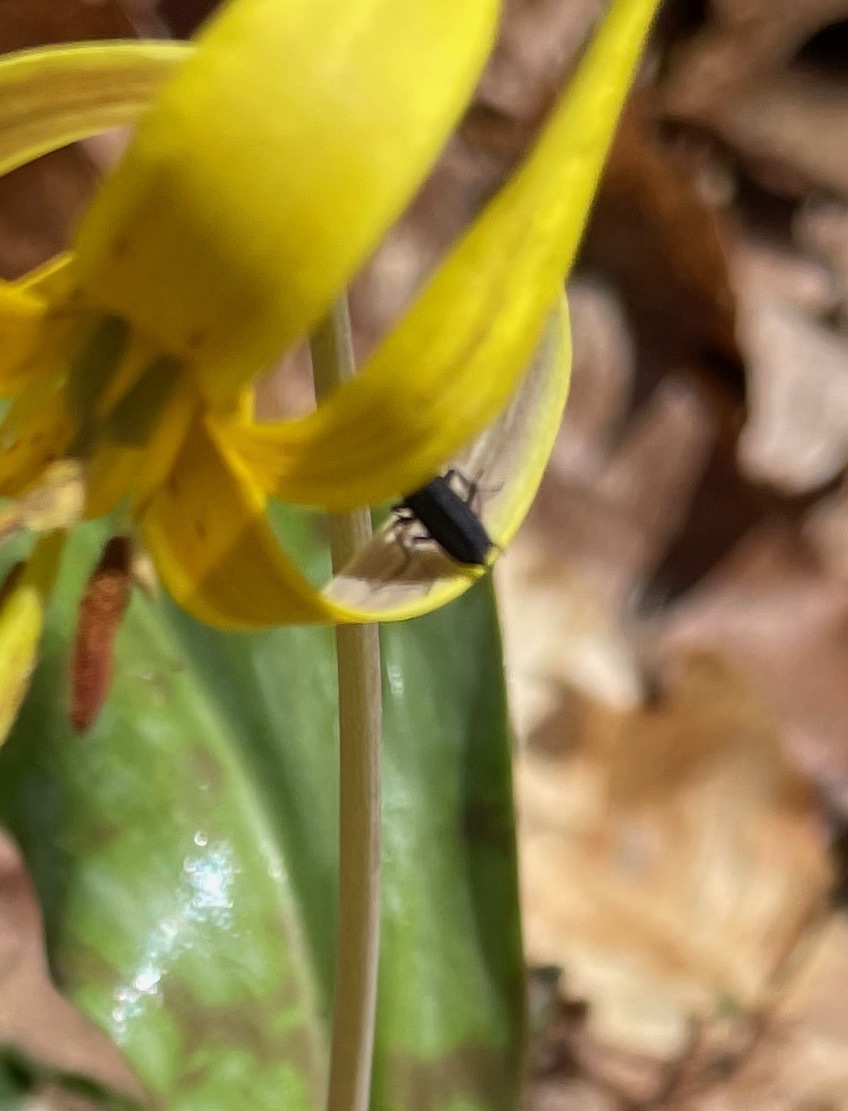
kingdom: Animalia
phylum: Arthropoda
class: Insecta
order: Coleoptera
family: Oedemeridae
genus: Ischnomera
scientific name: Ischnomera
